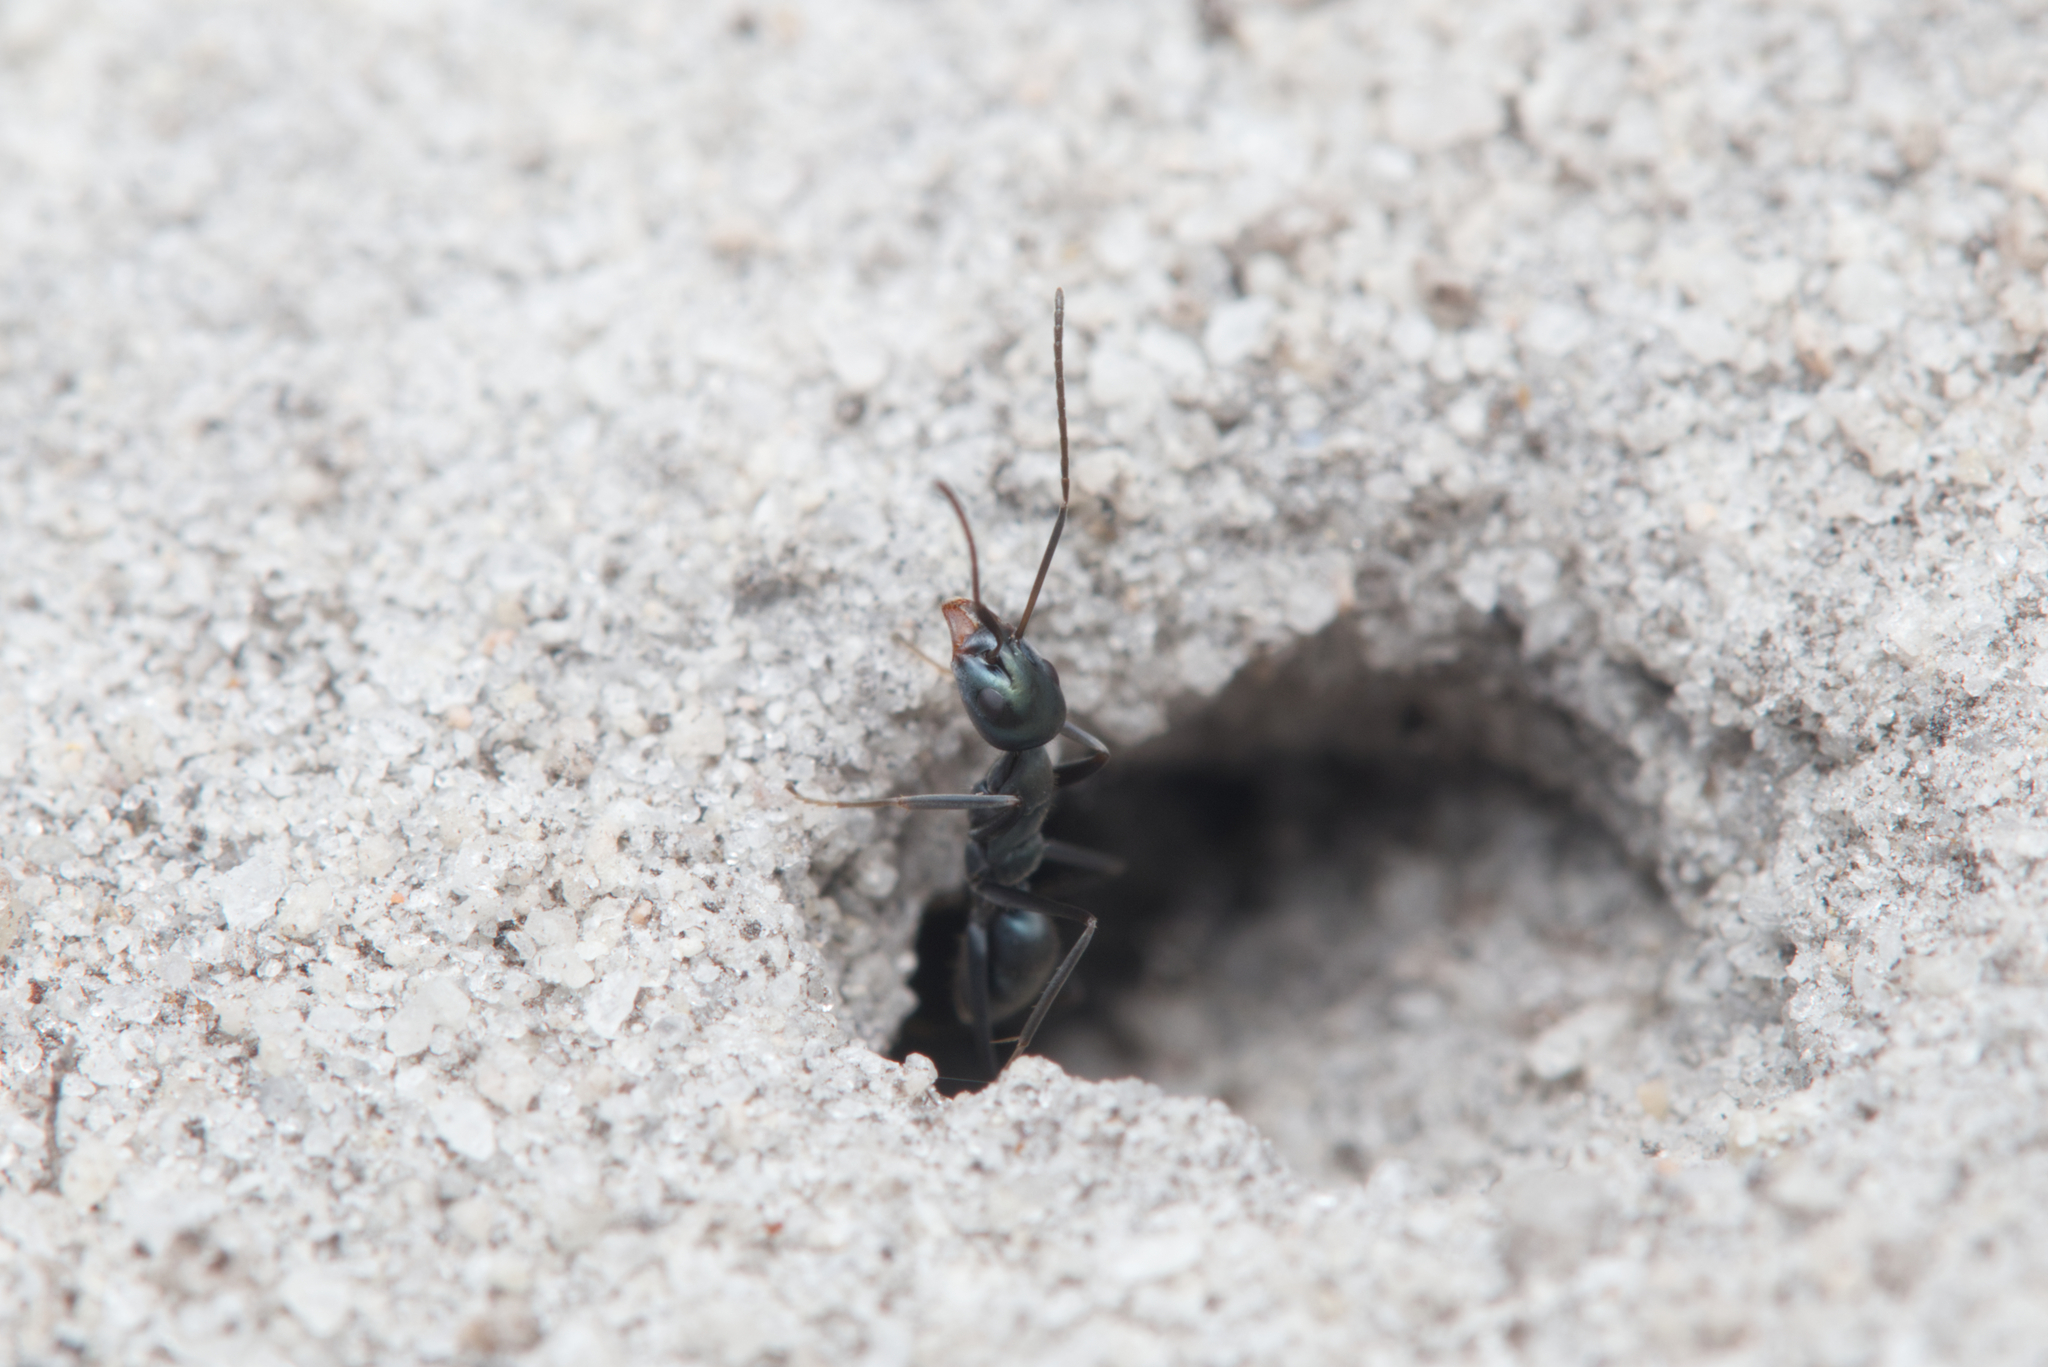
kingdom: Animalia
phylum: Arthropoda
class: Insecta
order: Hymenoptera
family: Formicidae
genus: Iridomyrmex
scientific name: Iridomyrmex bicknelli
